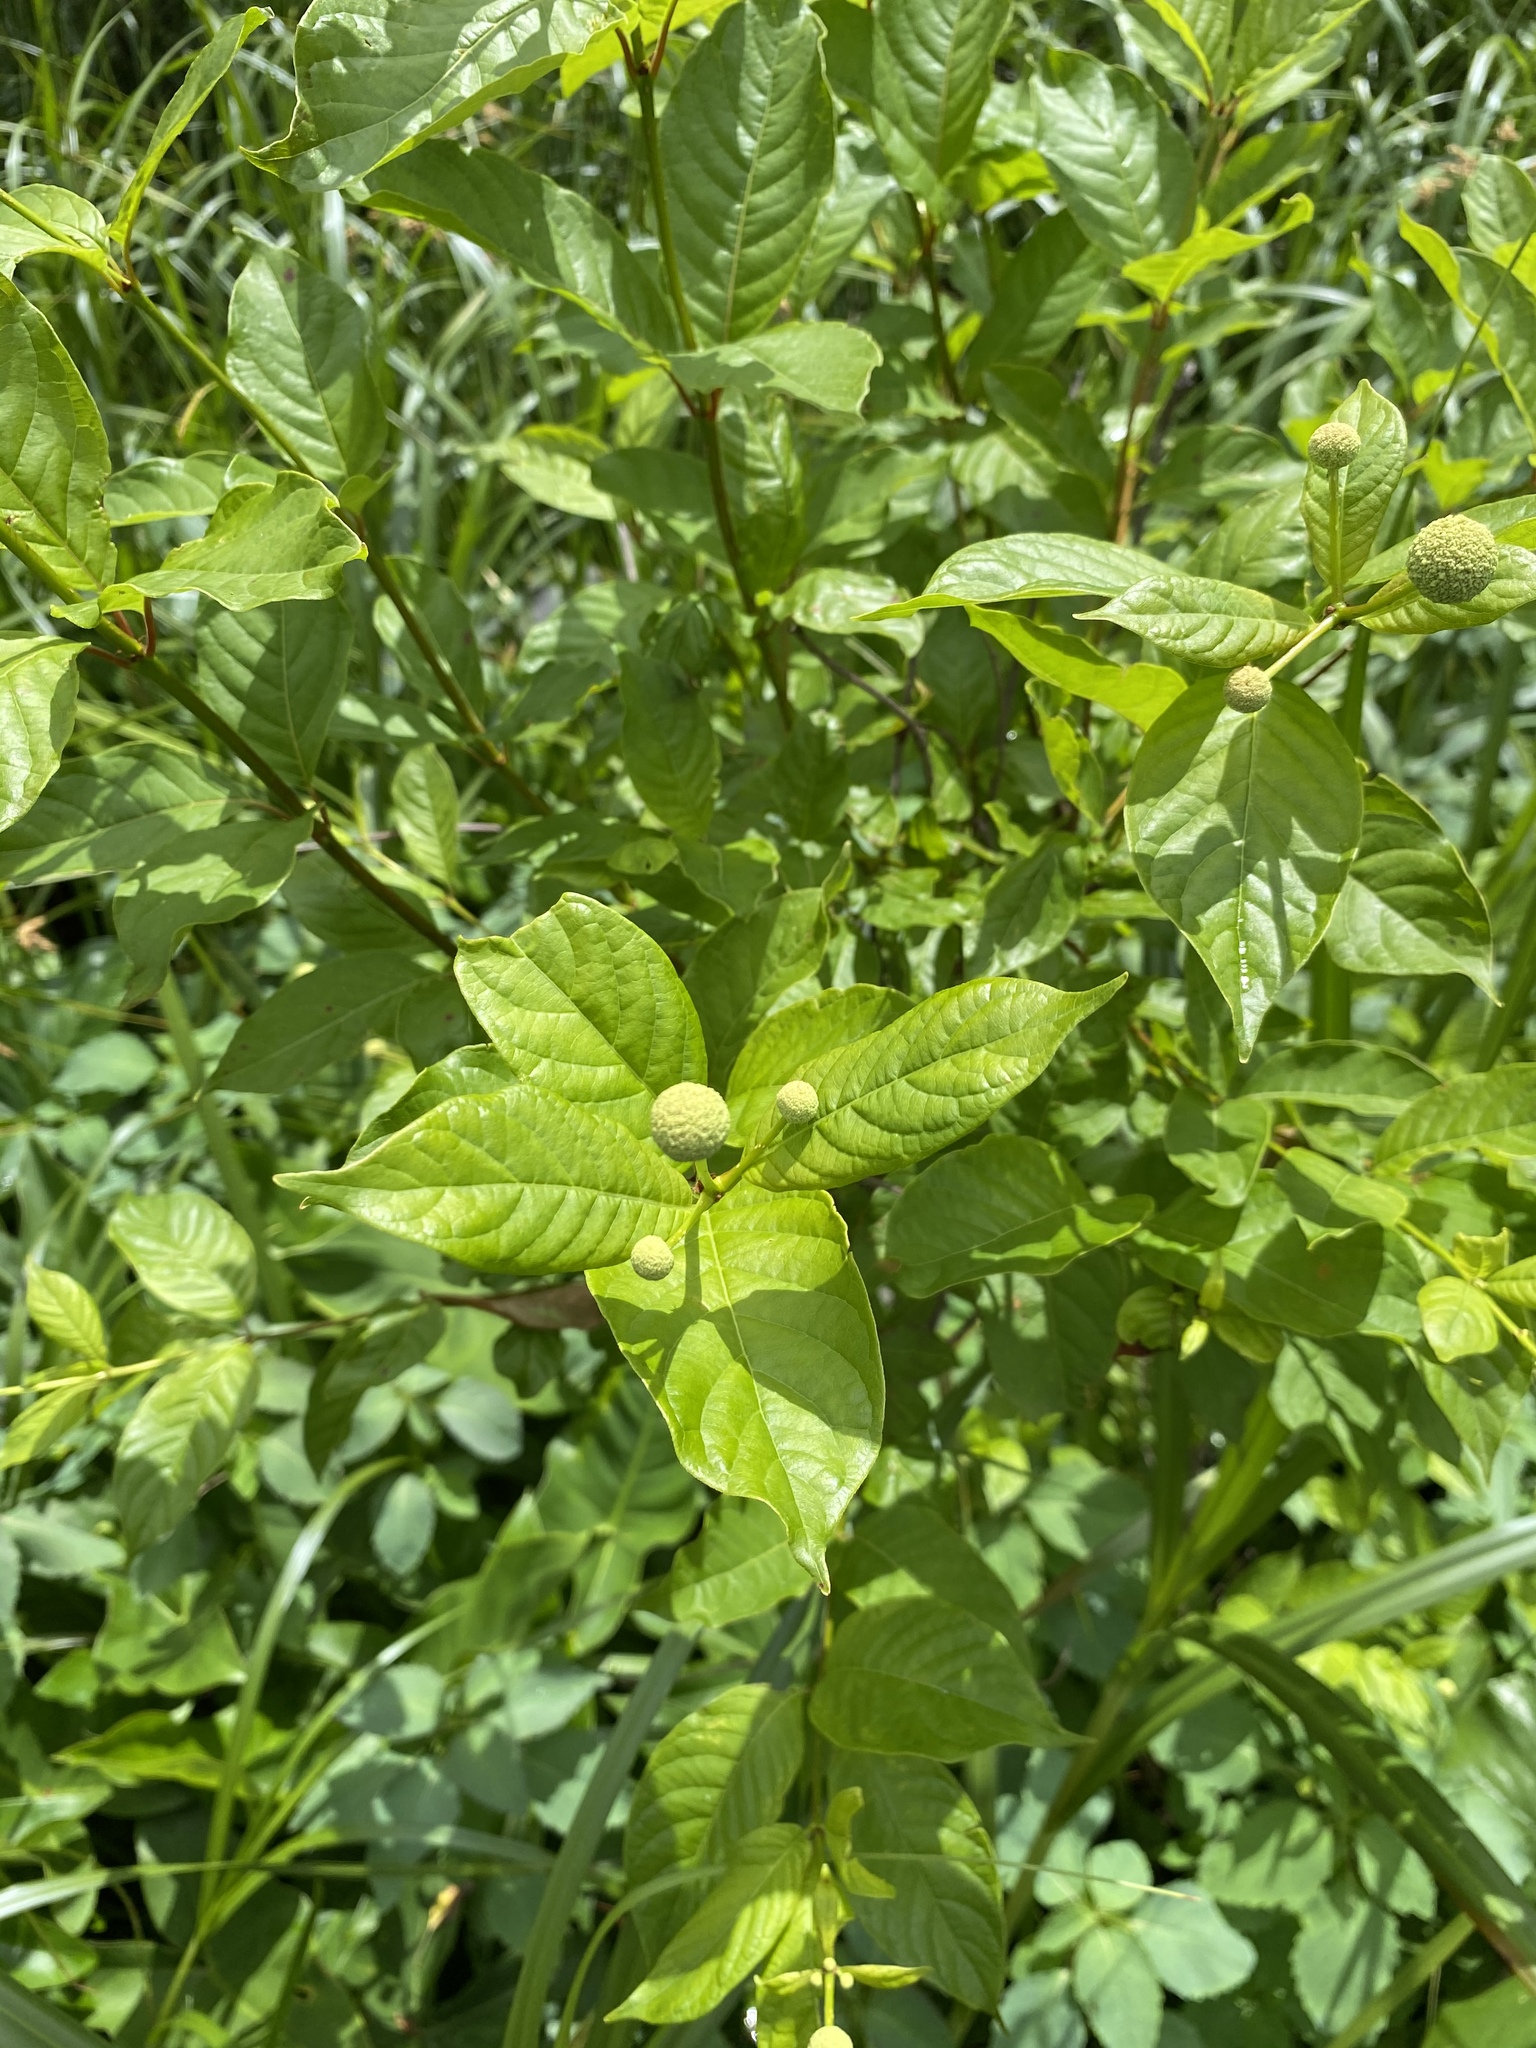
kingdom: Plantae
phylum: Tracheophyta
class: Magnoliopsida
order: Gentianales
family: Rubiaceae
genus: Cephalanthus
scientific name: Cephalanthus occidentalis
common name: Button-willow
